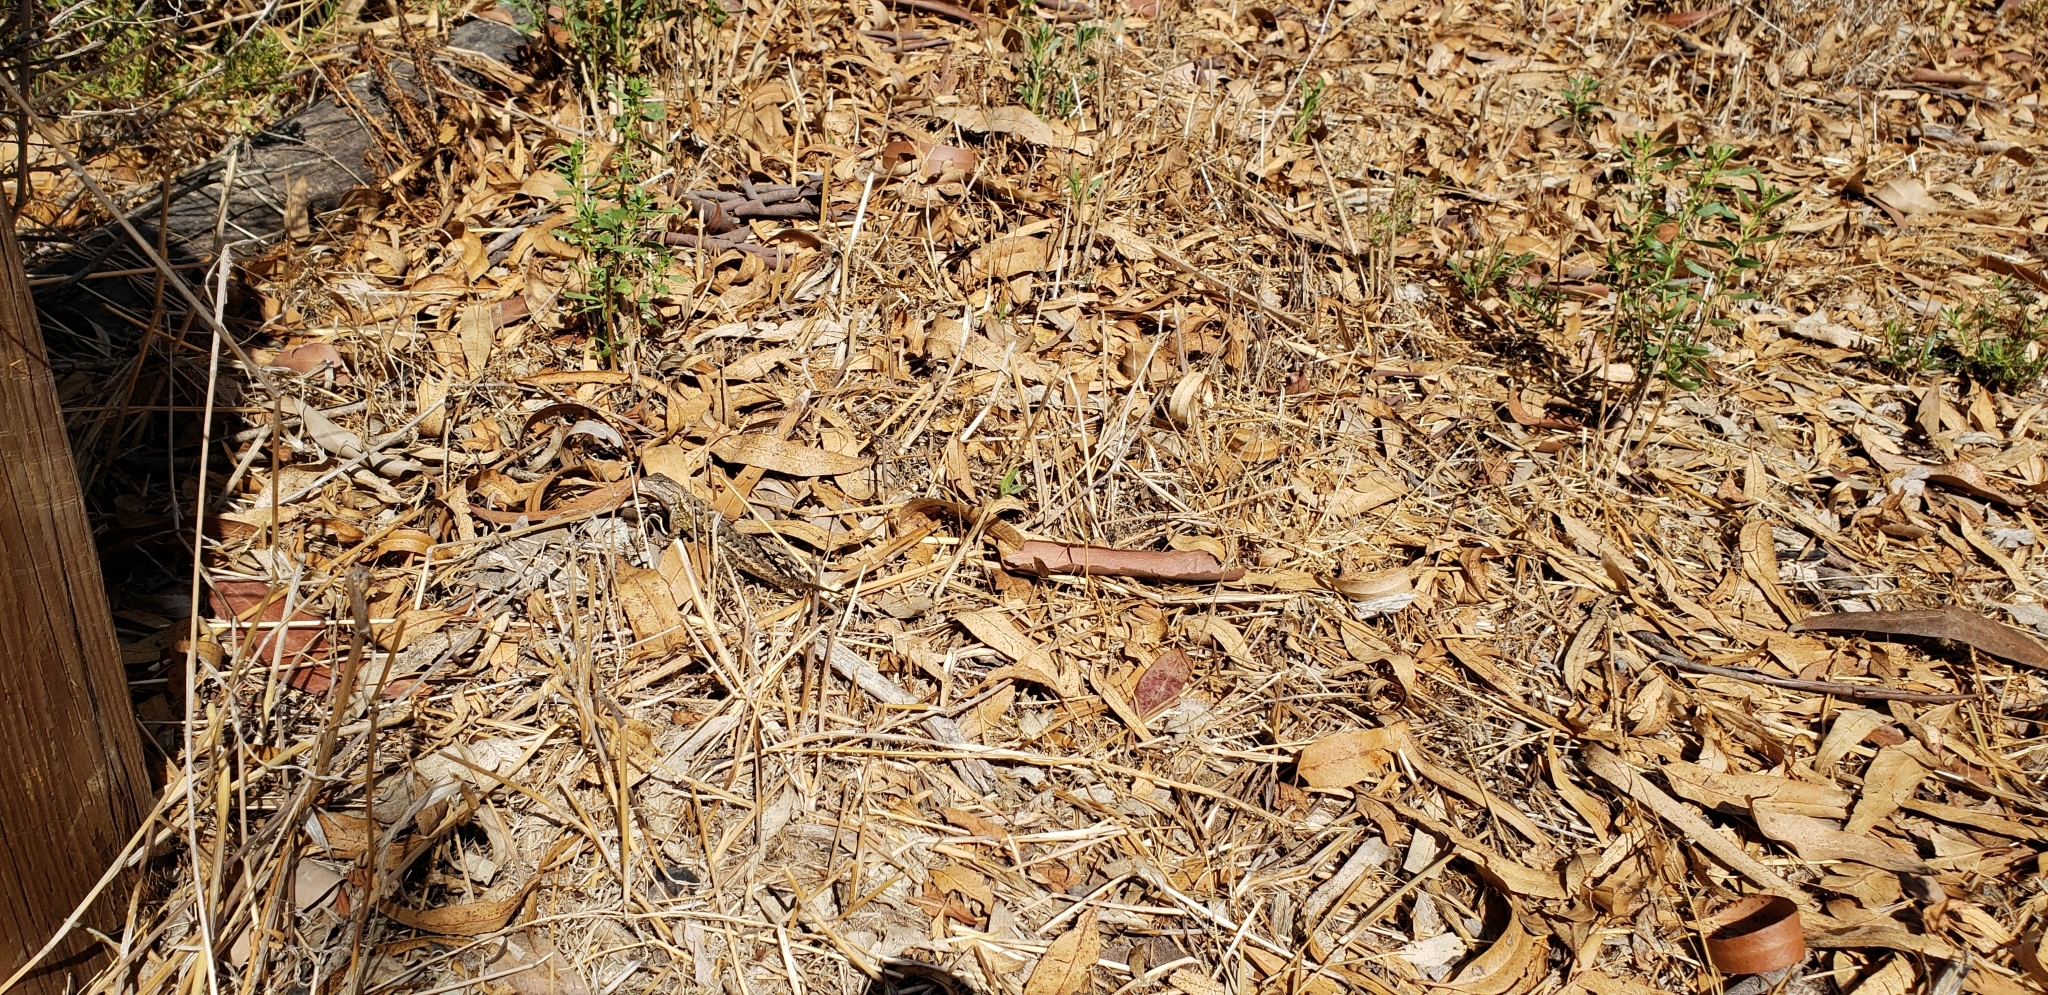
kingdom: Animalia
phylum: Chordata
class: Squamata
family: Phrynosomatidae
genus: Sceloporus
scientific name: Sceloporus occidentalis
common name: Western fence lizard
